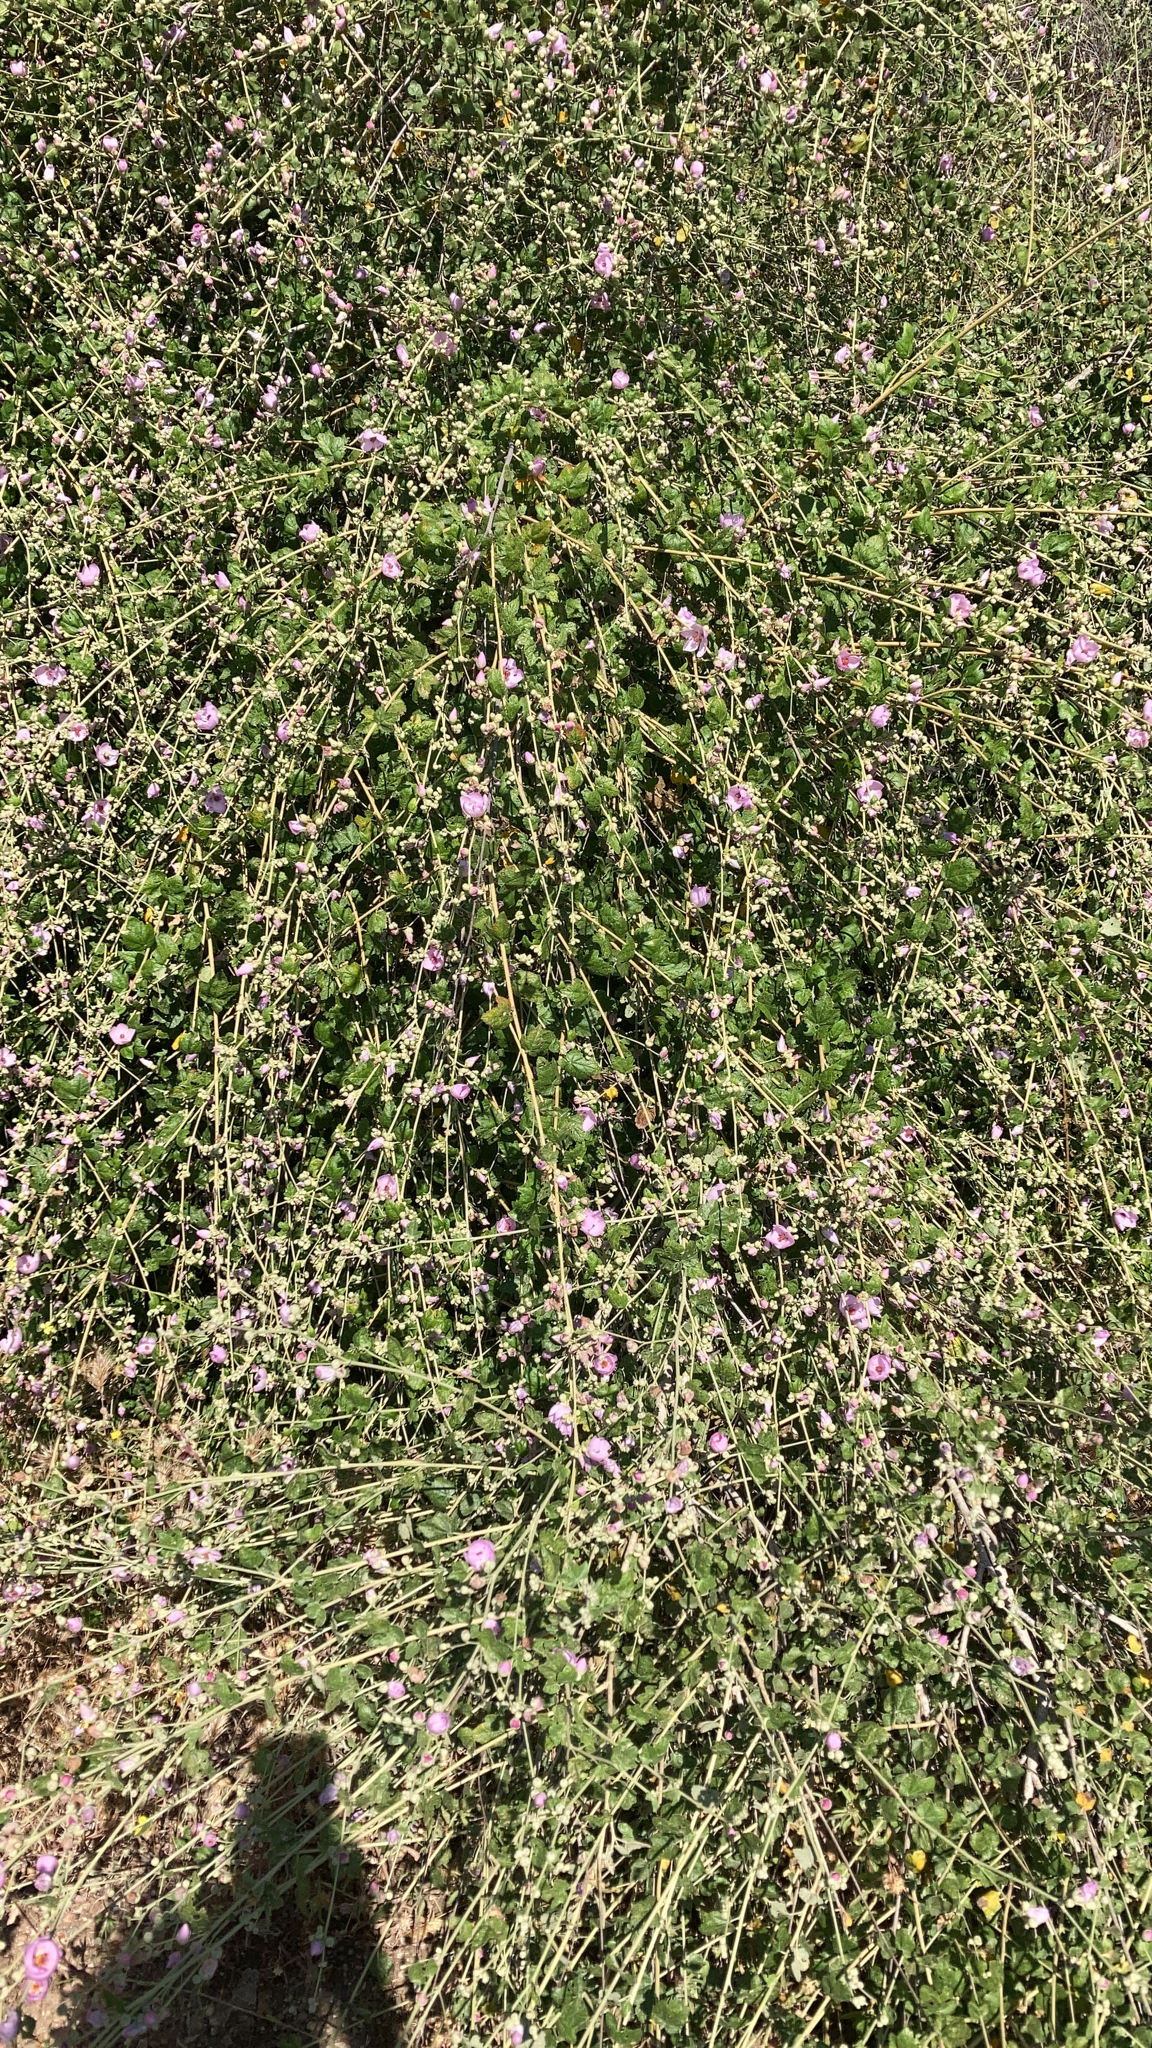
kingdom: Plantae
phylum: Tracheophyta
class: Magnoliopsida
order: Malvales
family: Malvaceae
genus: Malacothamnus
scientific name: Malacothamnus fasciculatus
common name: Sant cruz island bush-mallow
